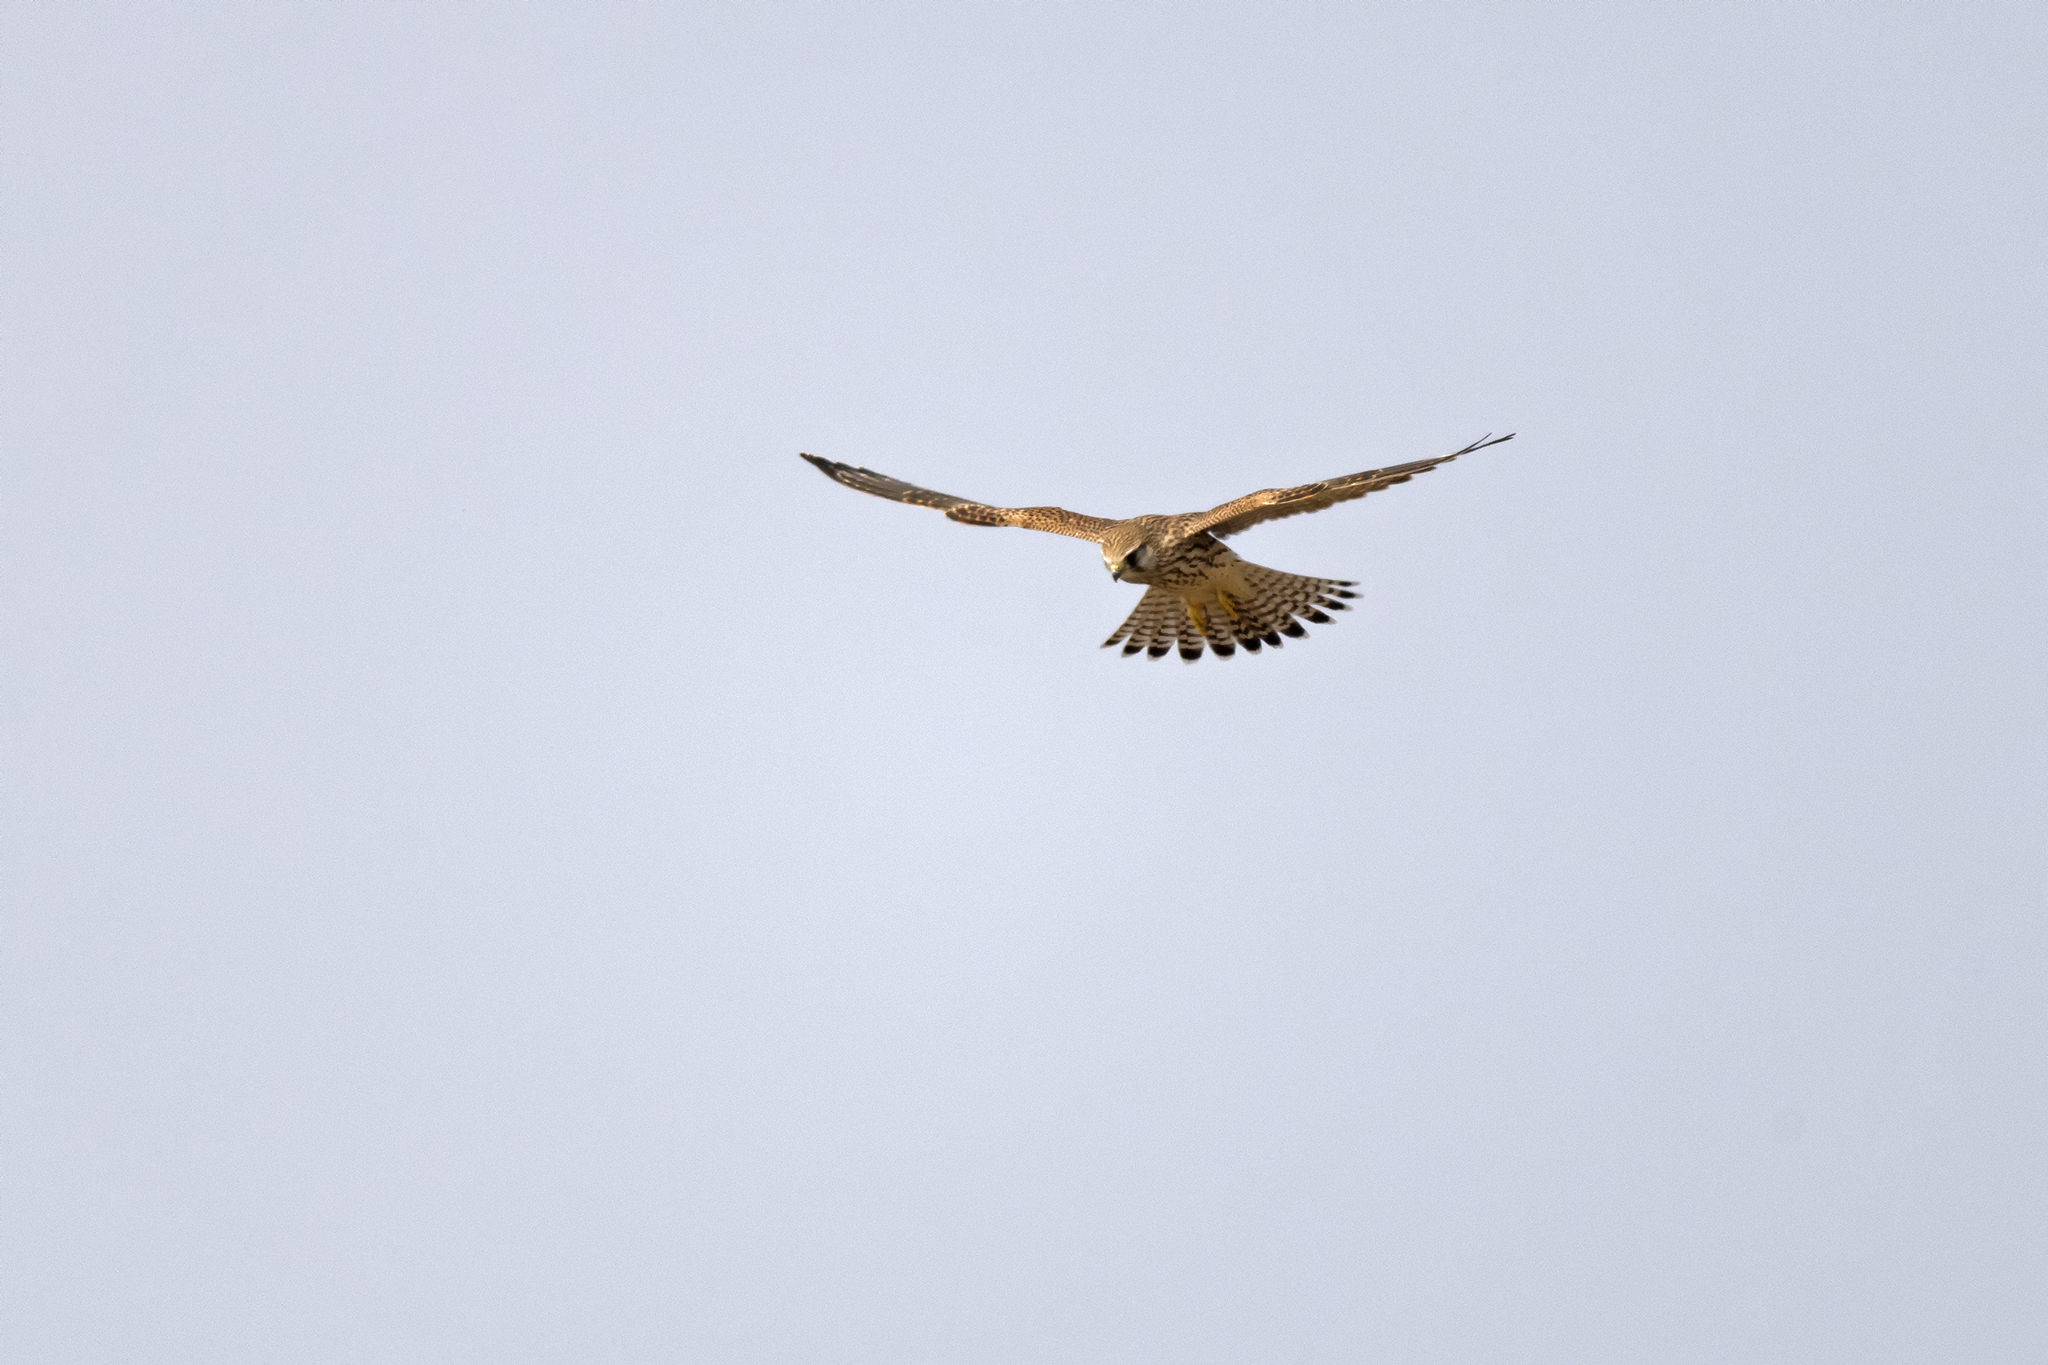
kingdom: Animalia
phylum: Chordata
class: Aves
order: Falconiformes
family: Falconidae
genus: Falco
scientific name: Falco tinnunculus
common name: Common kestrel
